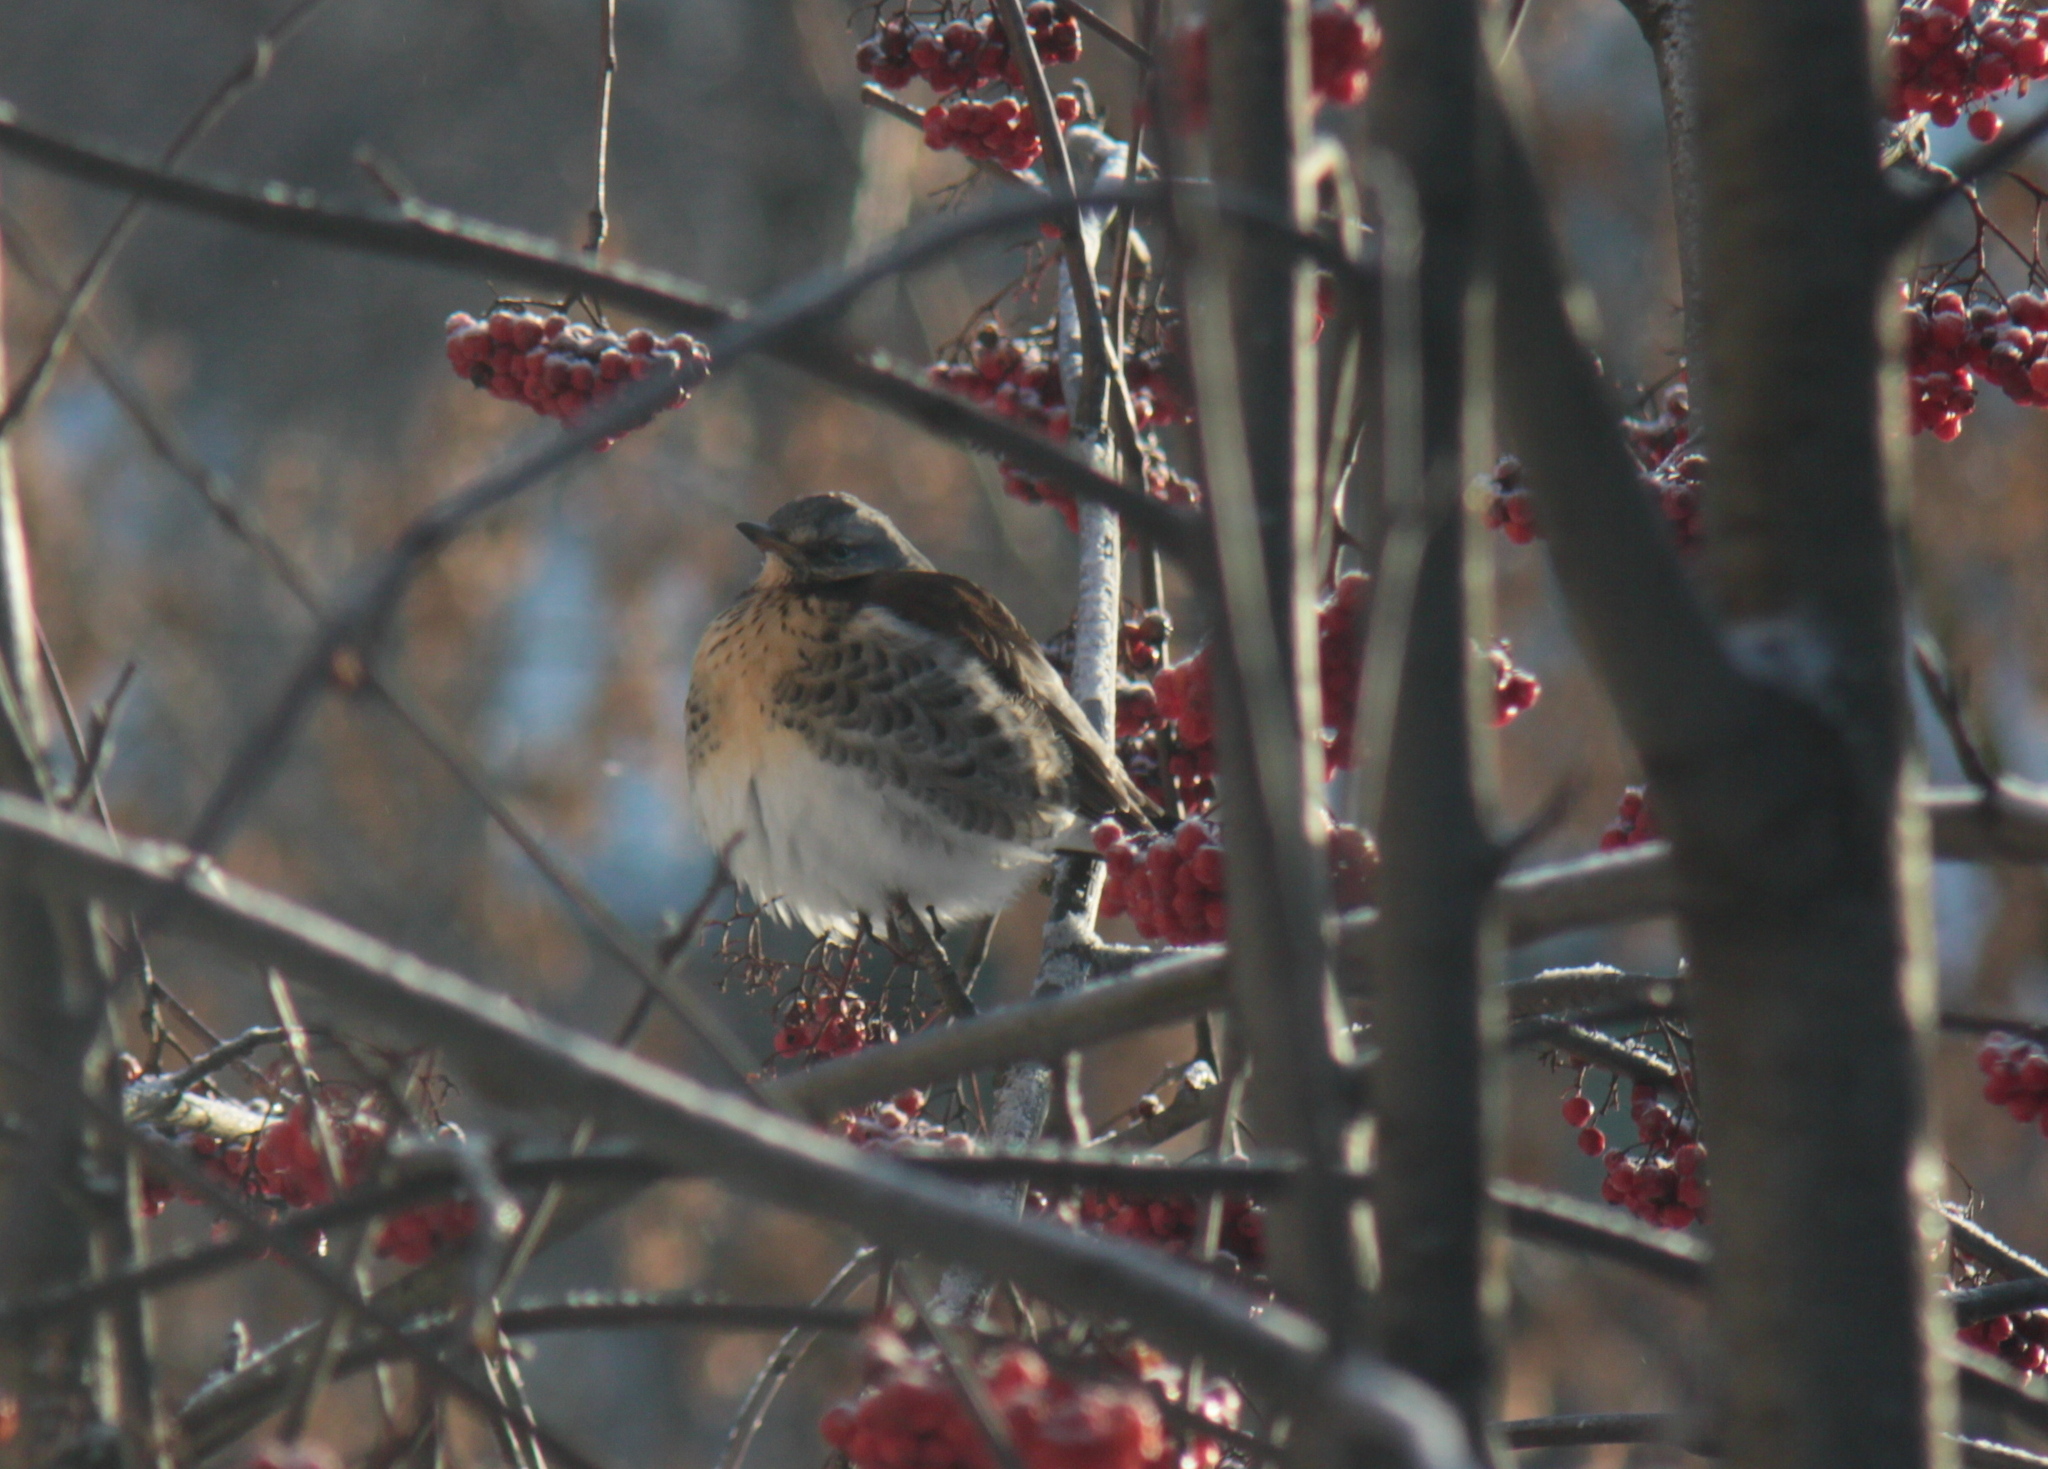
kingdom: Animalia
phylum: Chordata
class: Aves
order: Passeriformes
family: Turdidae
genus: Turdus
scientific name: Turdus pilaris
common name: Fieldfare
